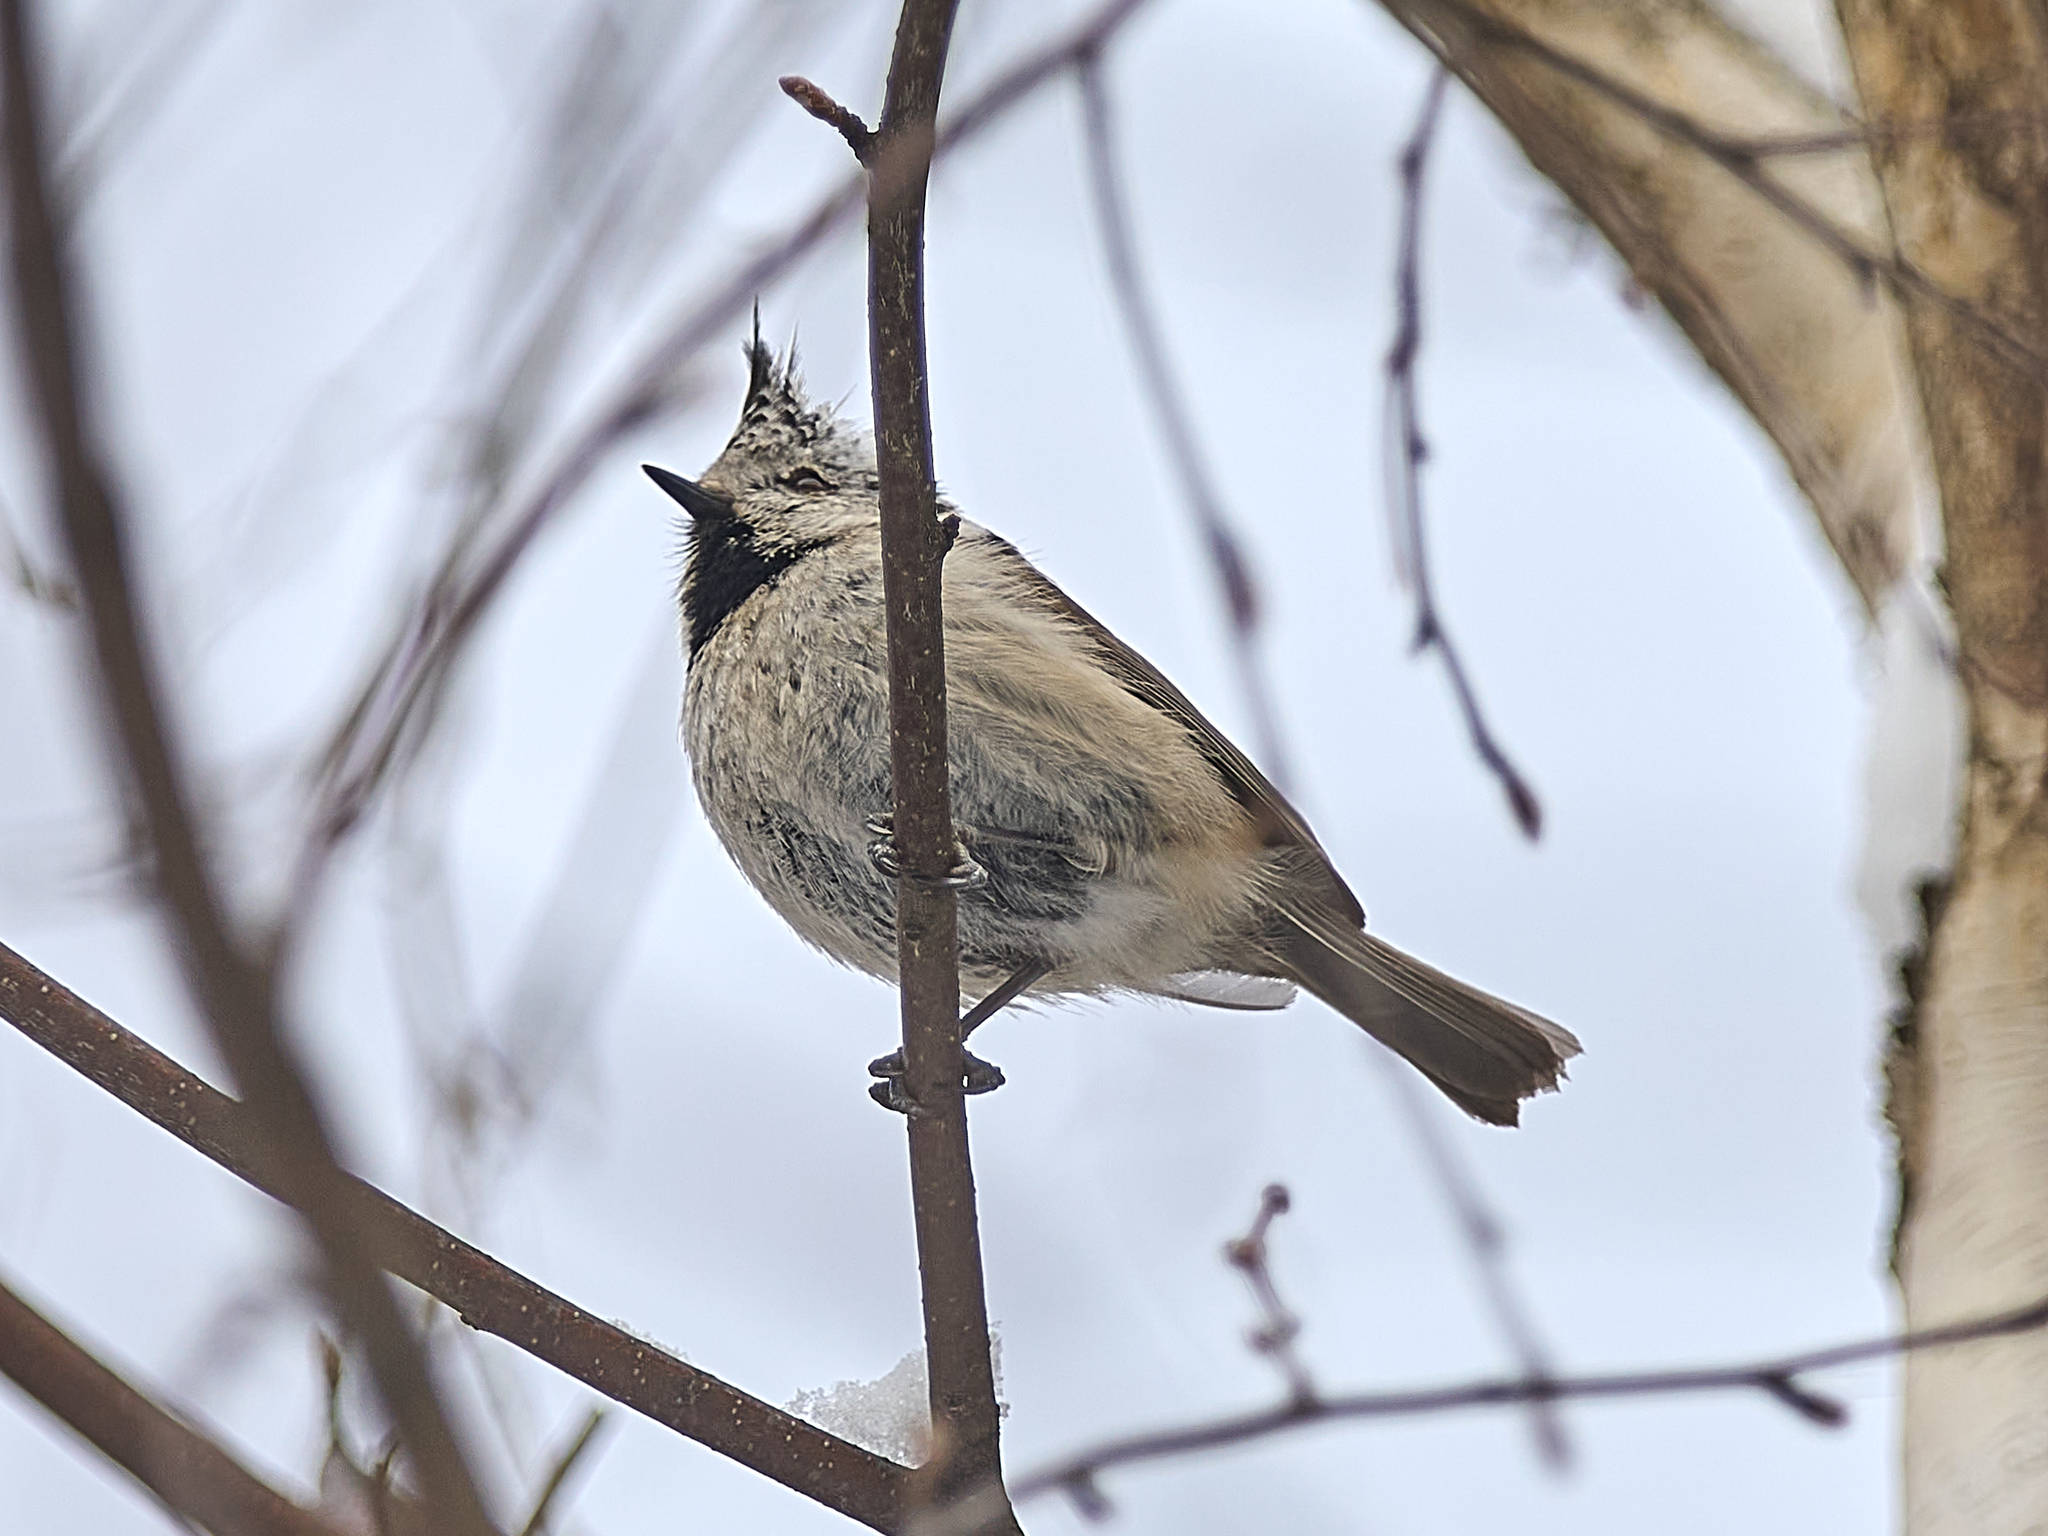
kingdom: Animalia
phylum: Chordata
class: Aves
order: Passeriformes
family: Paridae
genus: Lophophanes
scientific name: Lophophanes cristatus
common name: European crested tit
